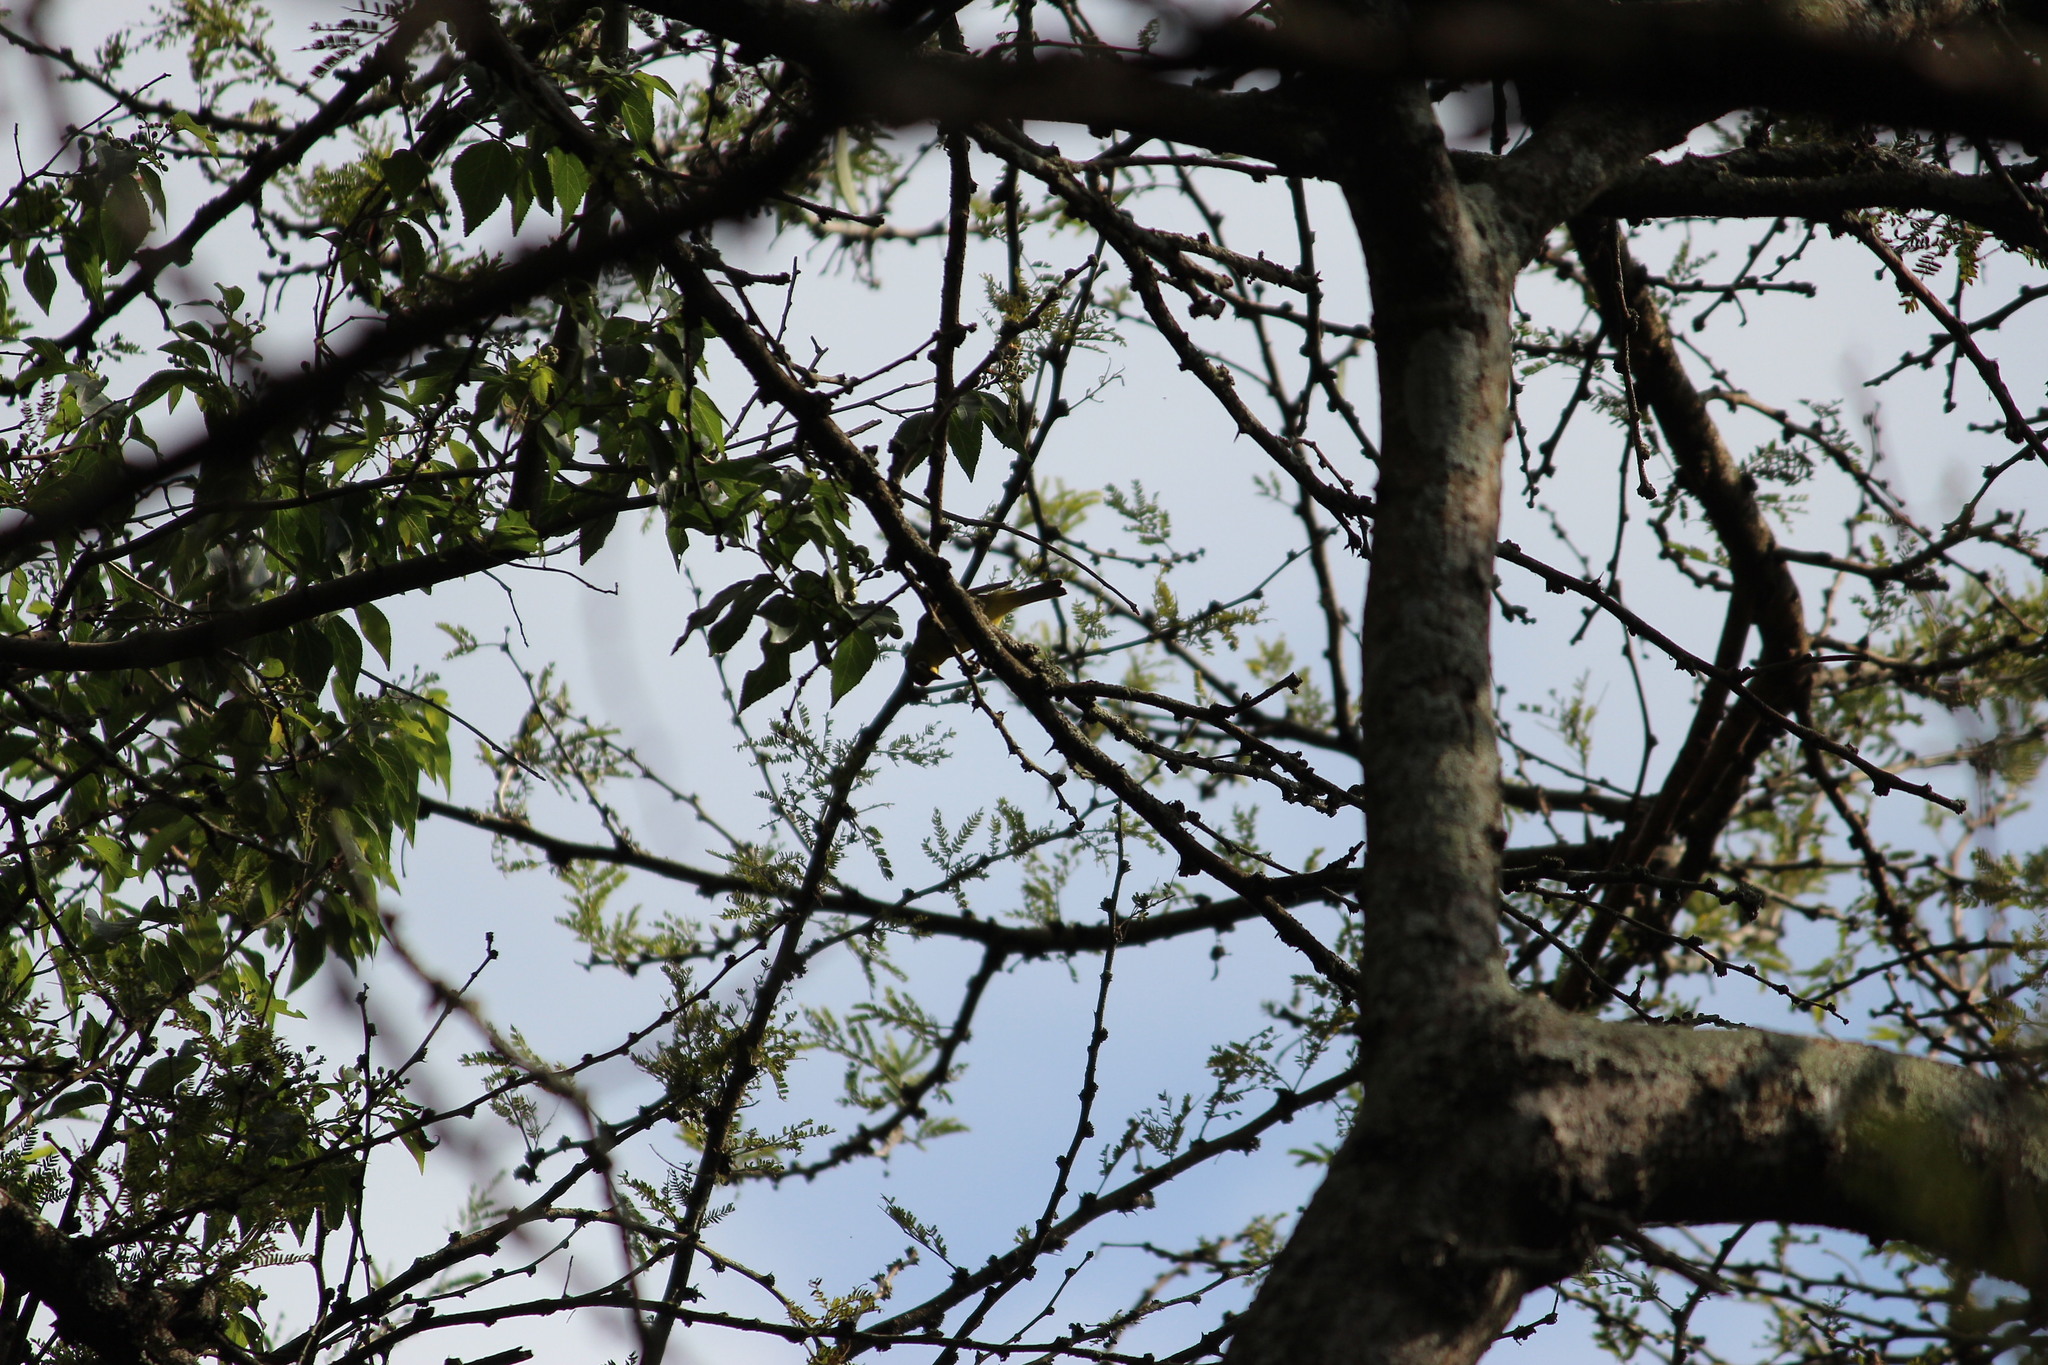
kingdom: Animalia
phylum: Chordata
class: Aves
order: Passeriformes
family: Zosteropidae
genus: Zosterops
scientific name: Zosterops virens
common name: Cape white-eye
